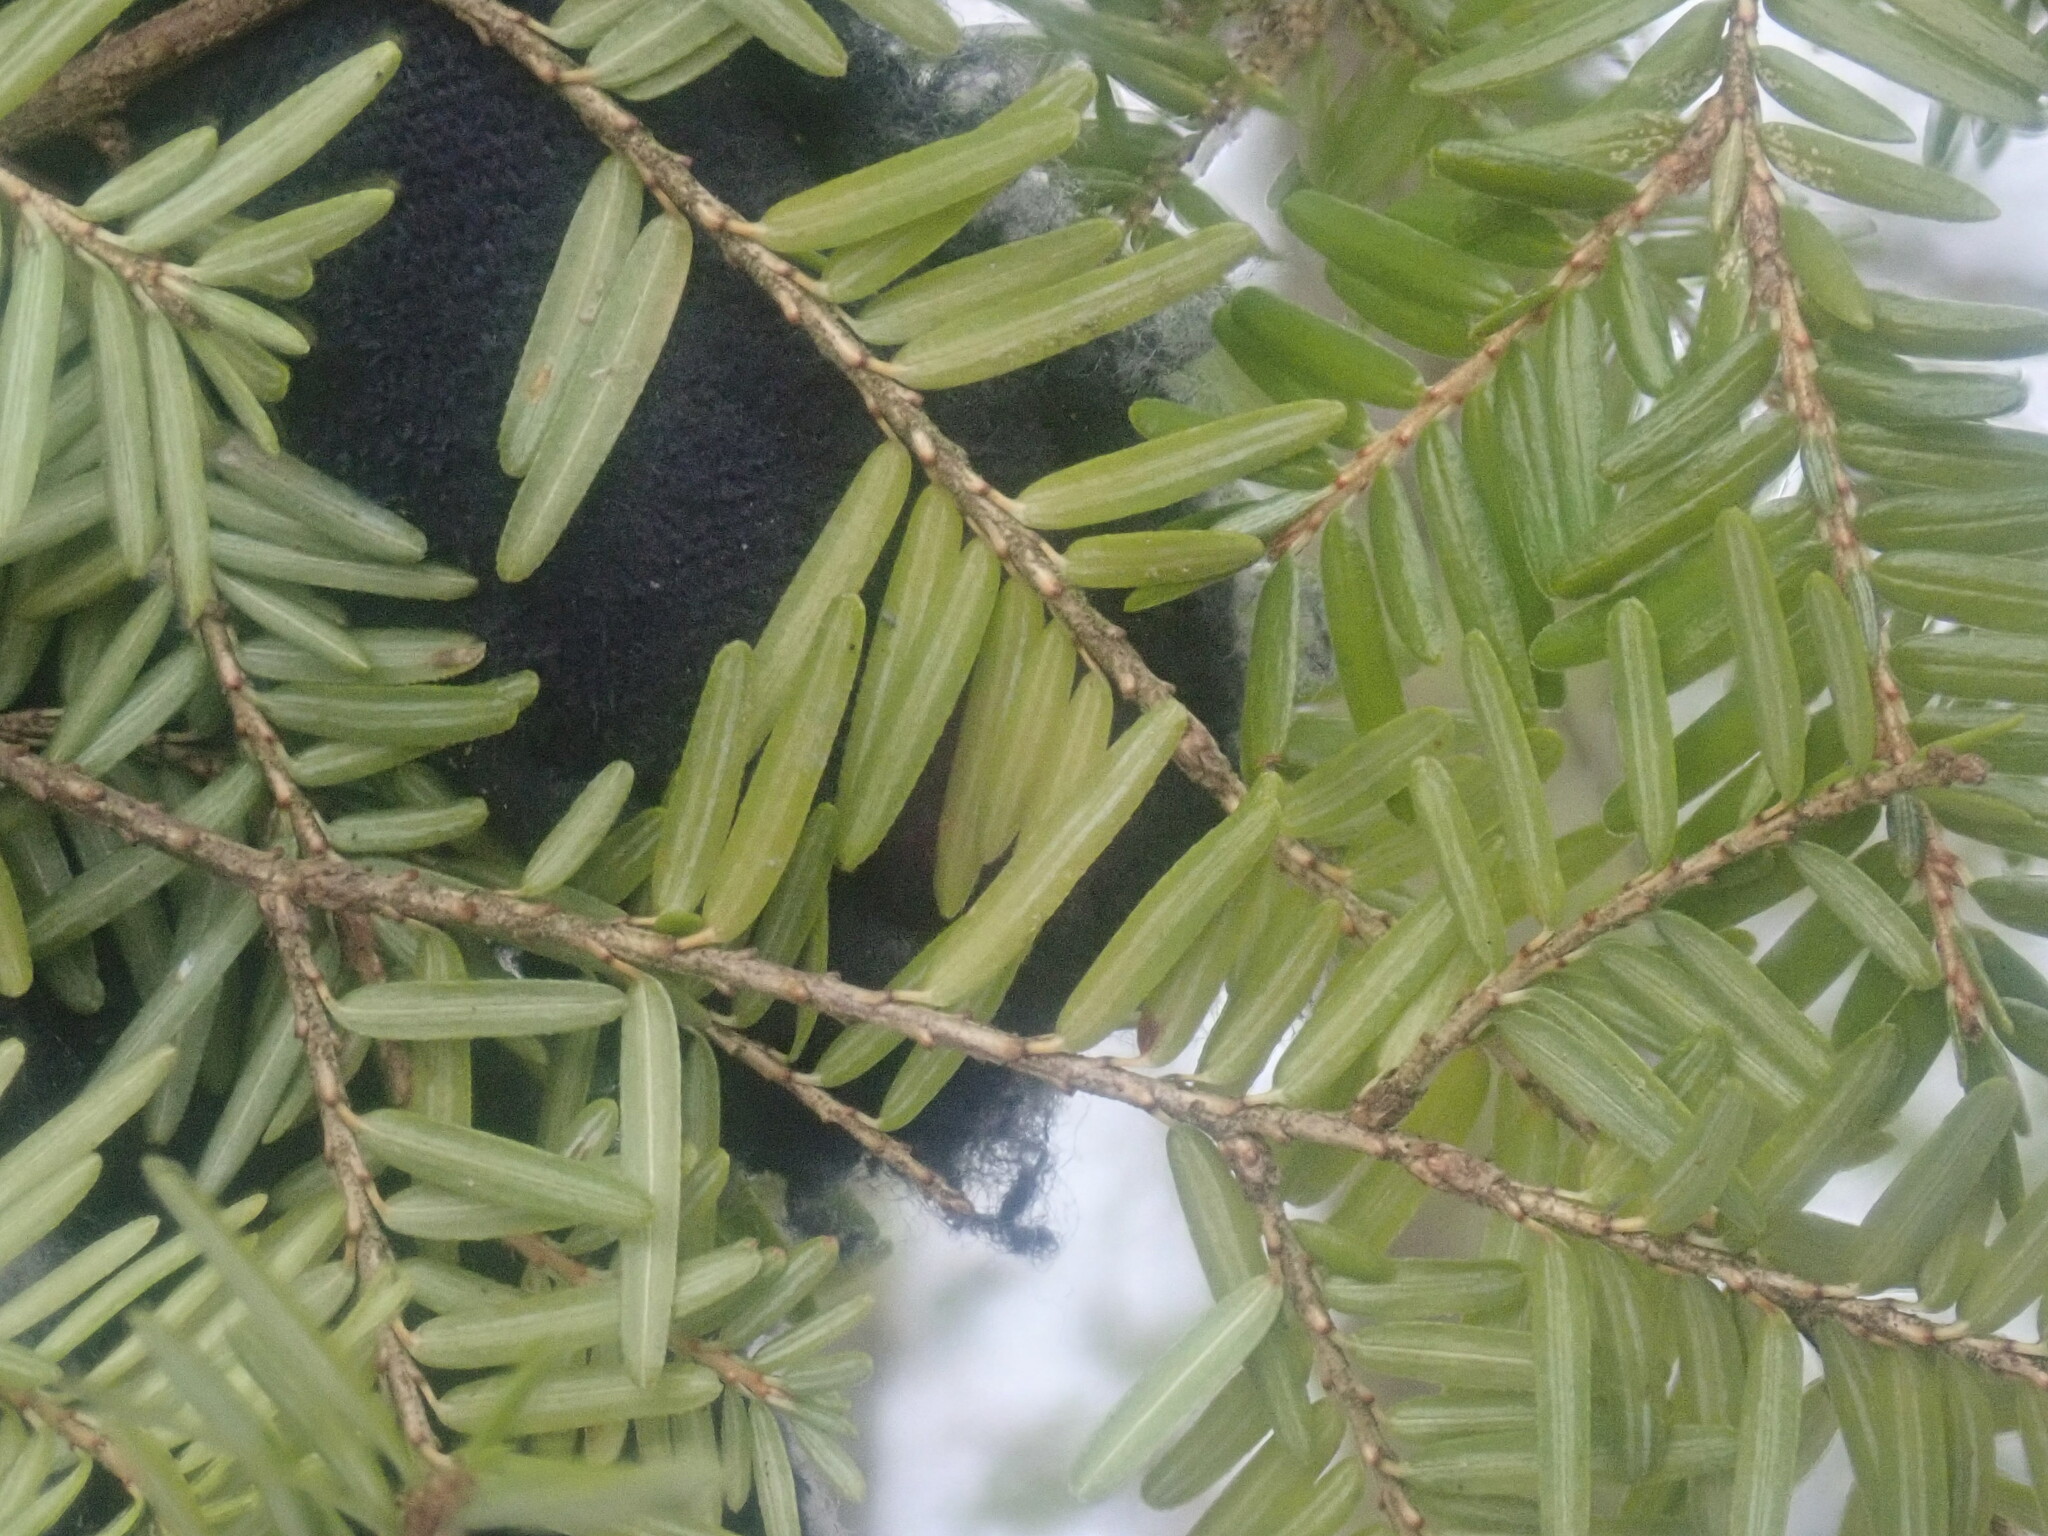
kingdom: Plantae
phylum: Tracheophyta
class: Pinopsida
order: Pinales
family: Pinaceae
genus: Tsuga
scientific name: Tsuga canadensis
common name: Eastern hemlock
